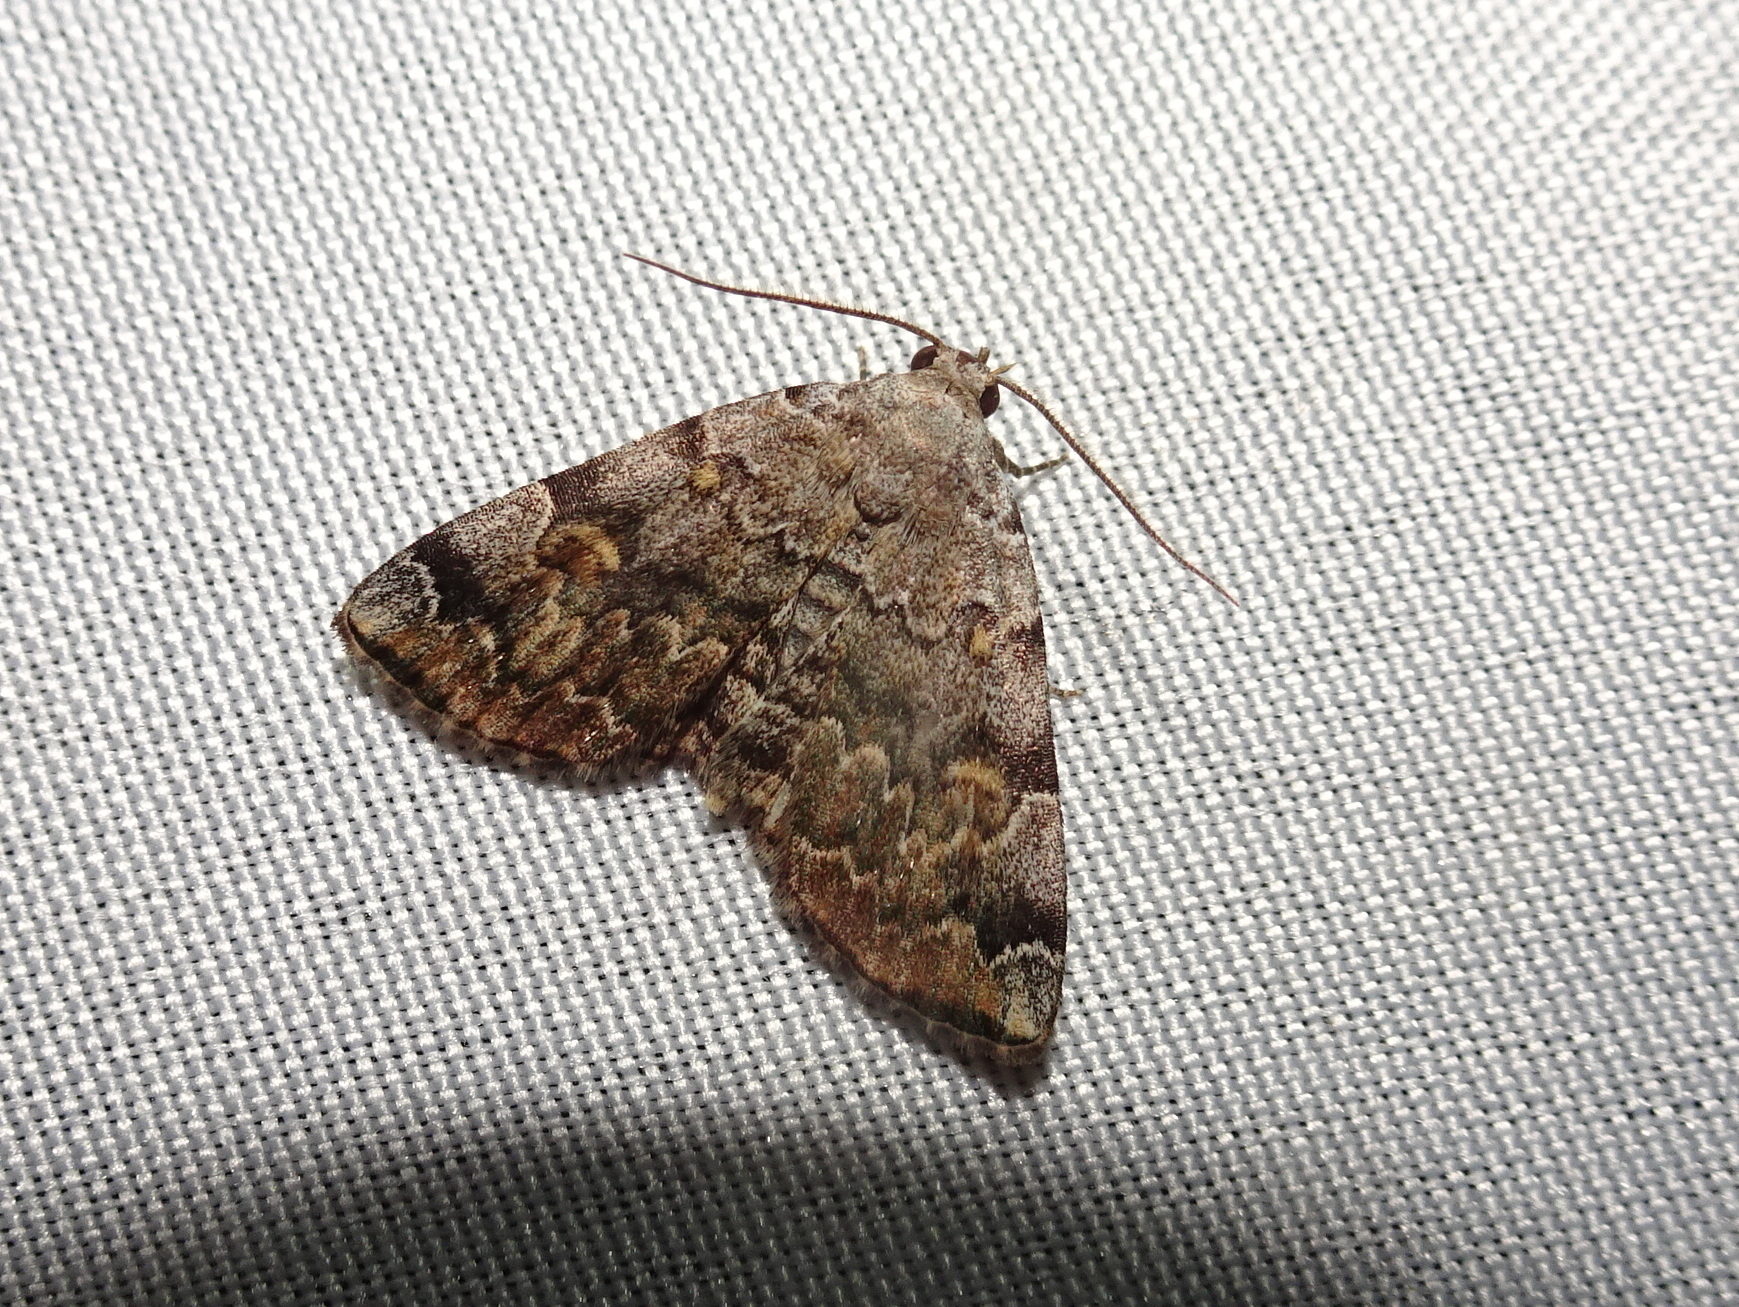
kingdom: Animalia
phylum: Arthropoda
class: Insecta
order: Lepidoptera
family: Erebidae
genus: Idia
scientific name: Idia americalis
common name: American idia moth
